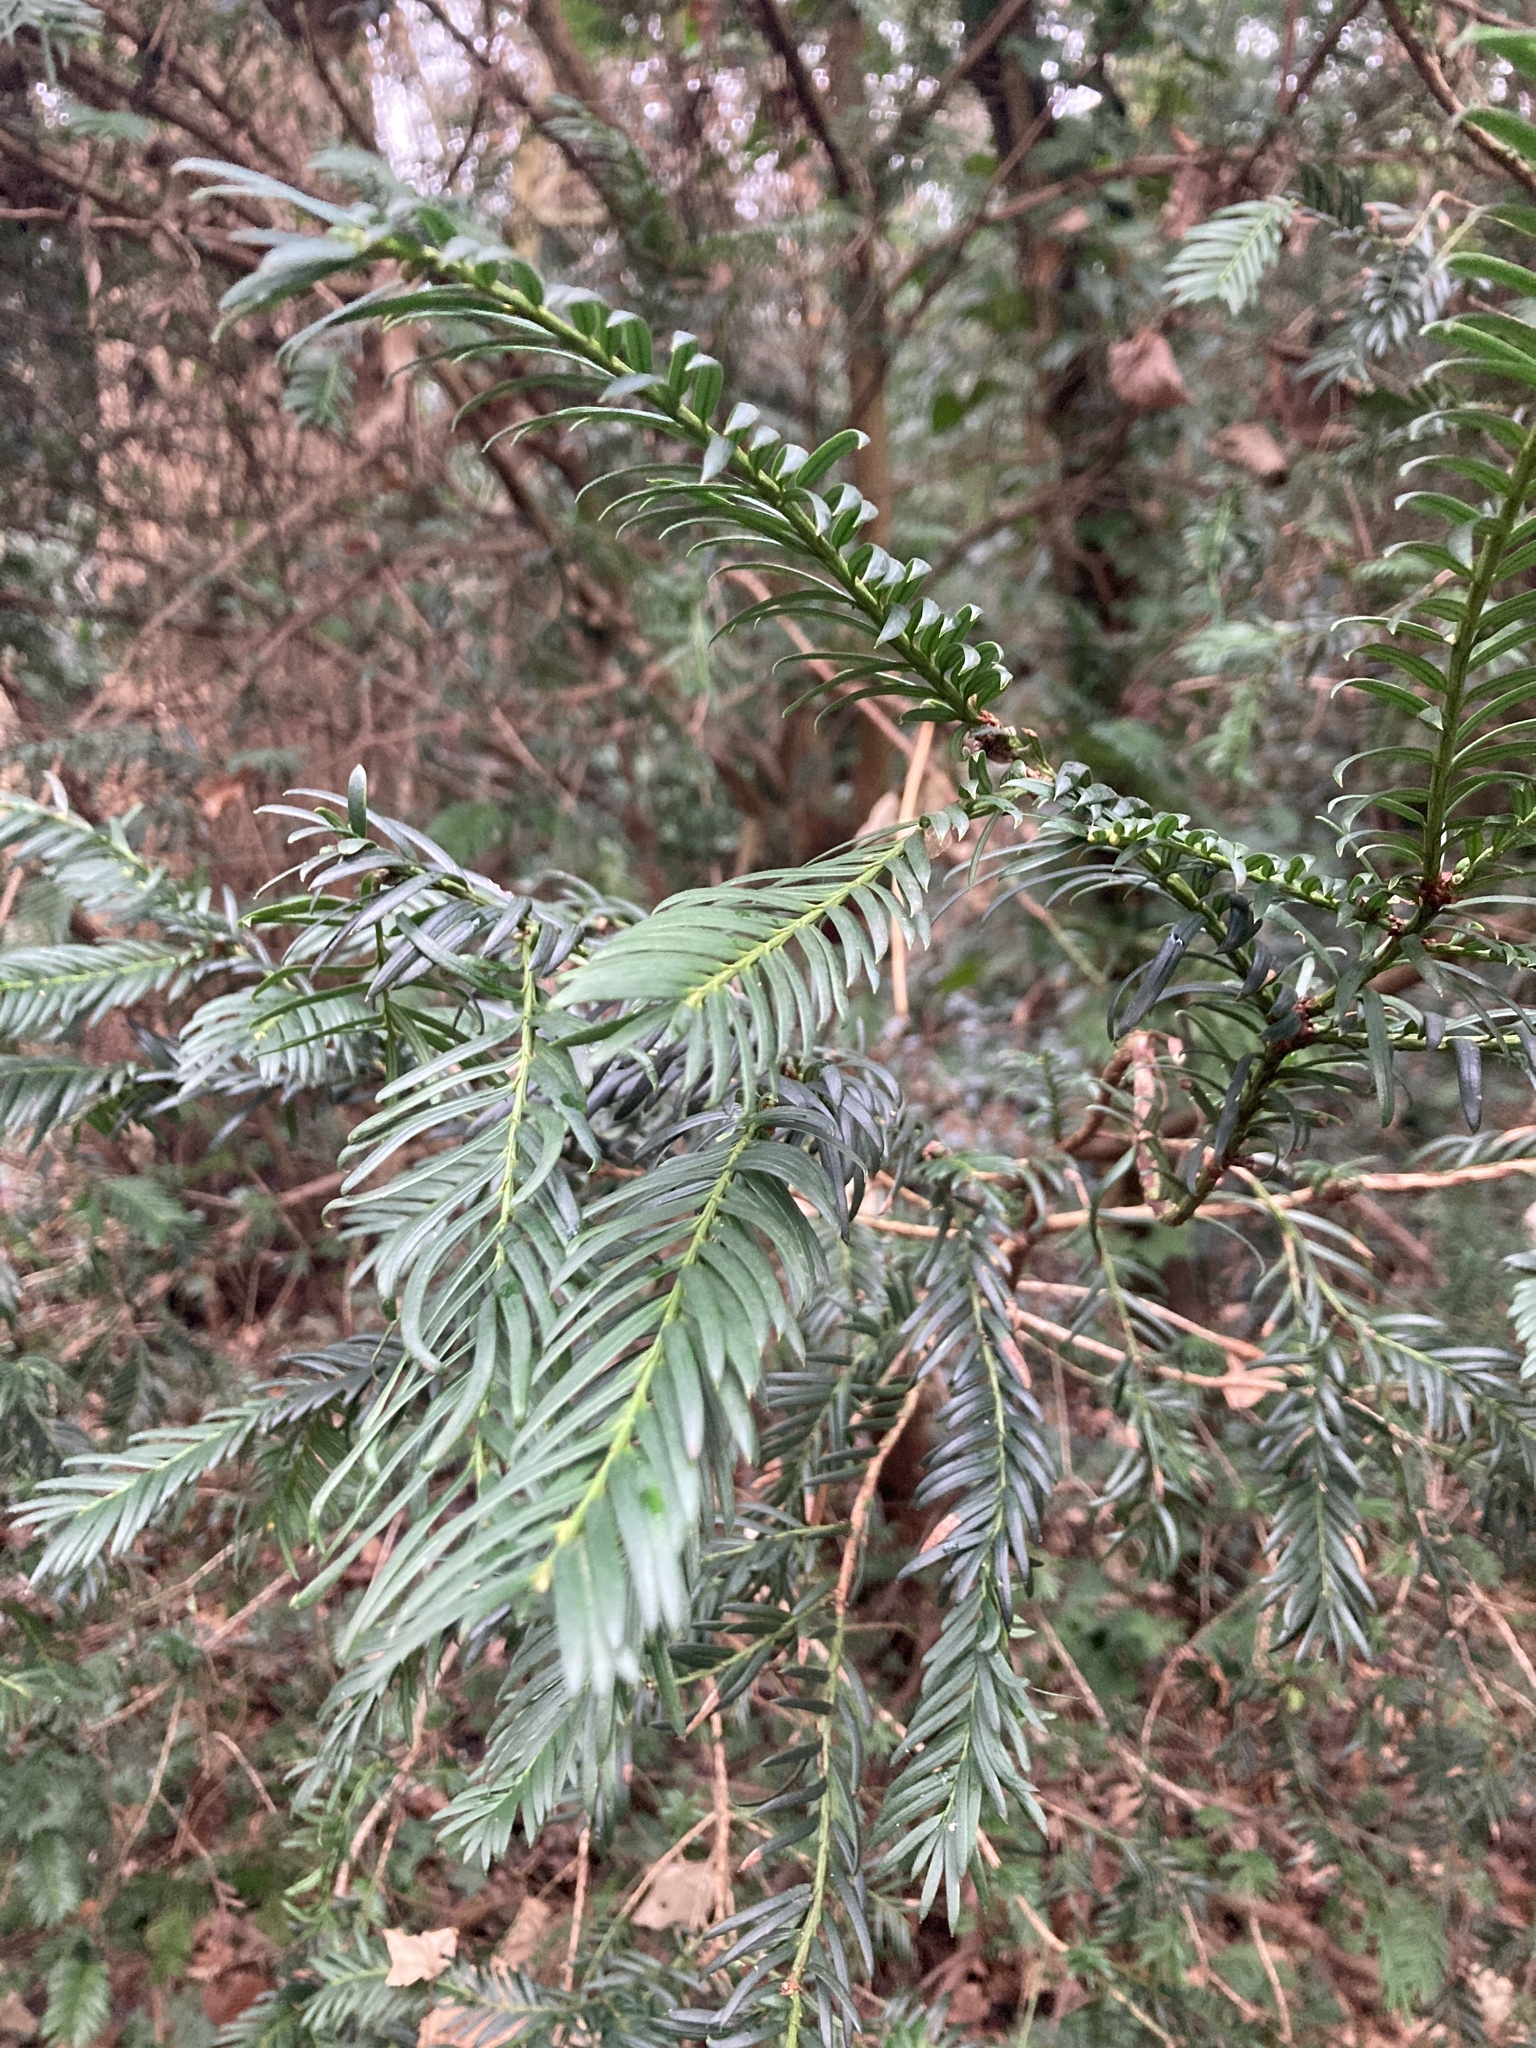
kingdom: Plantae
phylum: Tracheophyta
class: Pinopsida
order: Pinales
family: Taxaceae
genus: Taxus
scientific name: Taxus baccata
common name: Yew
